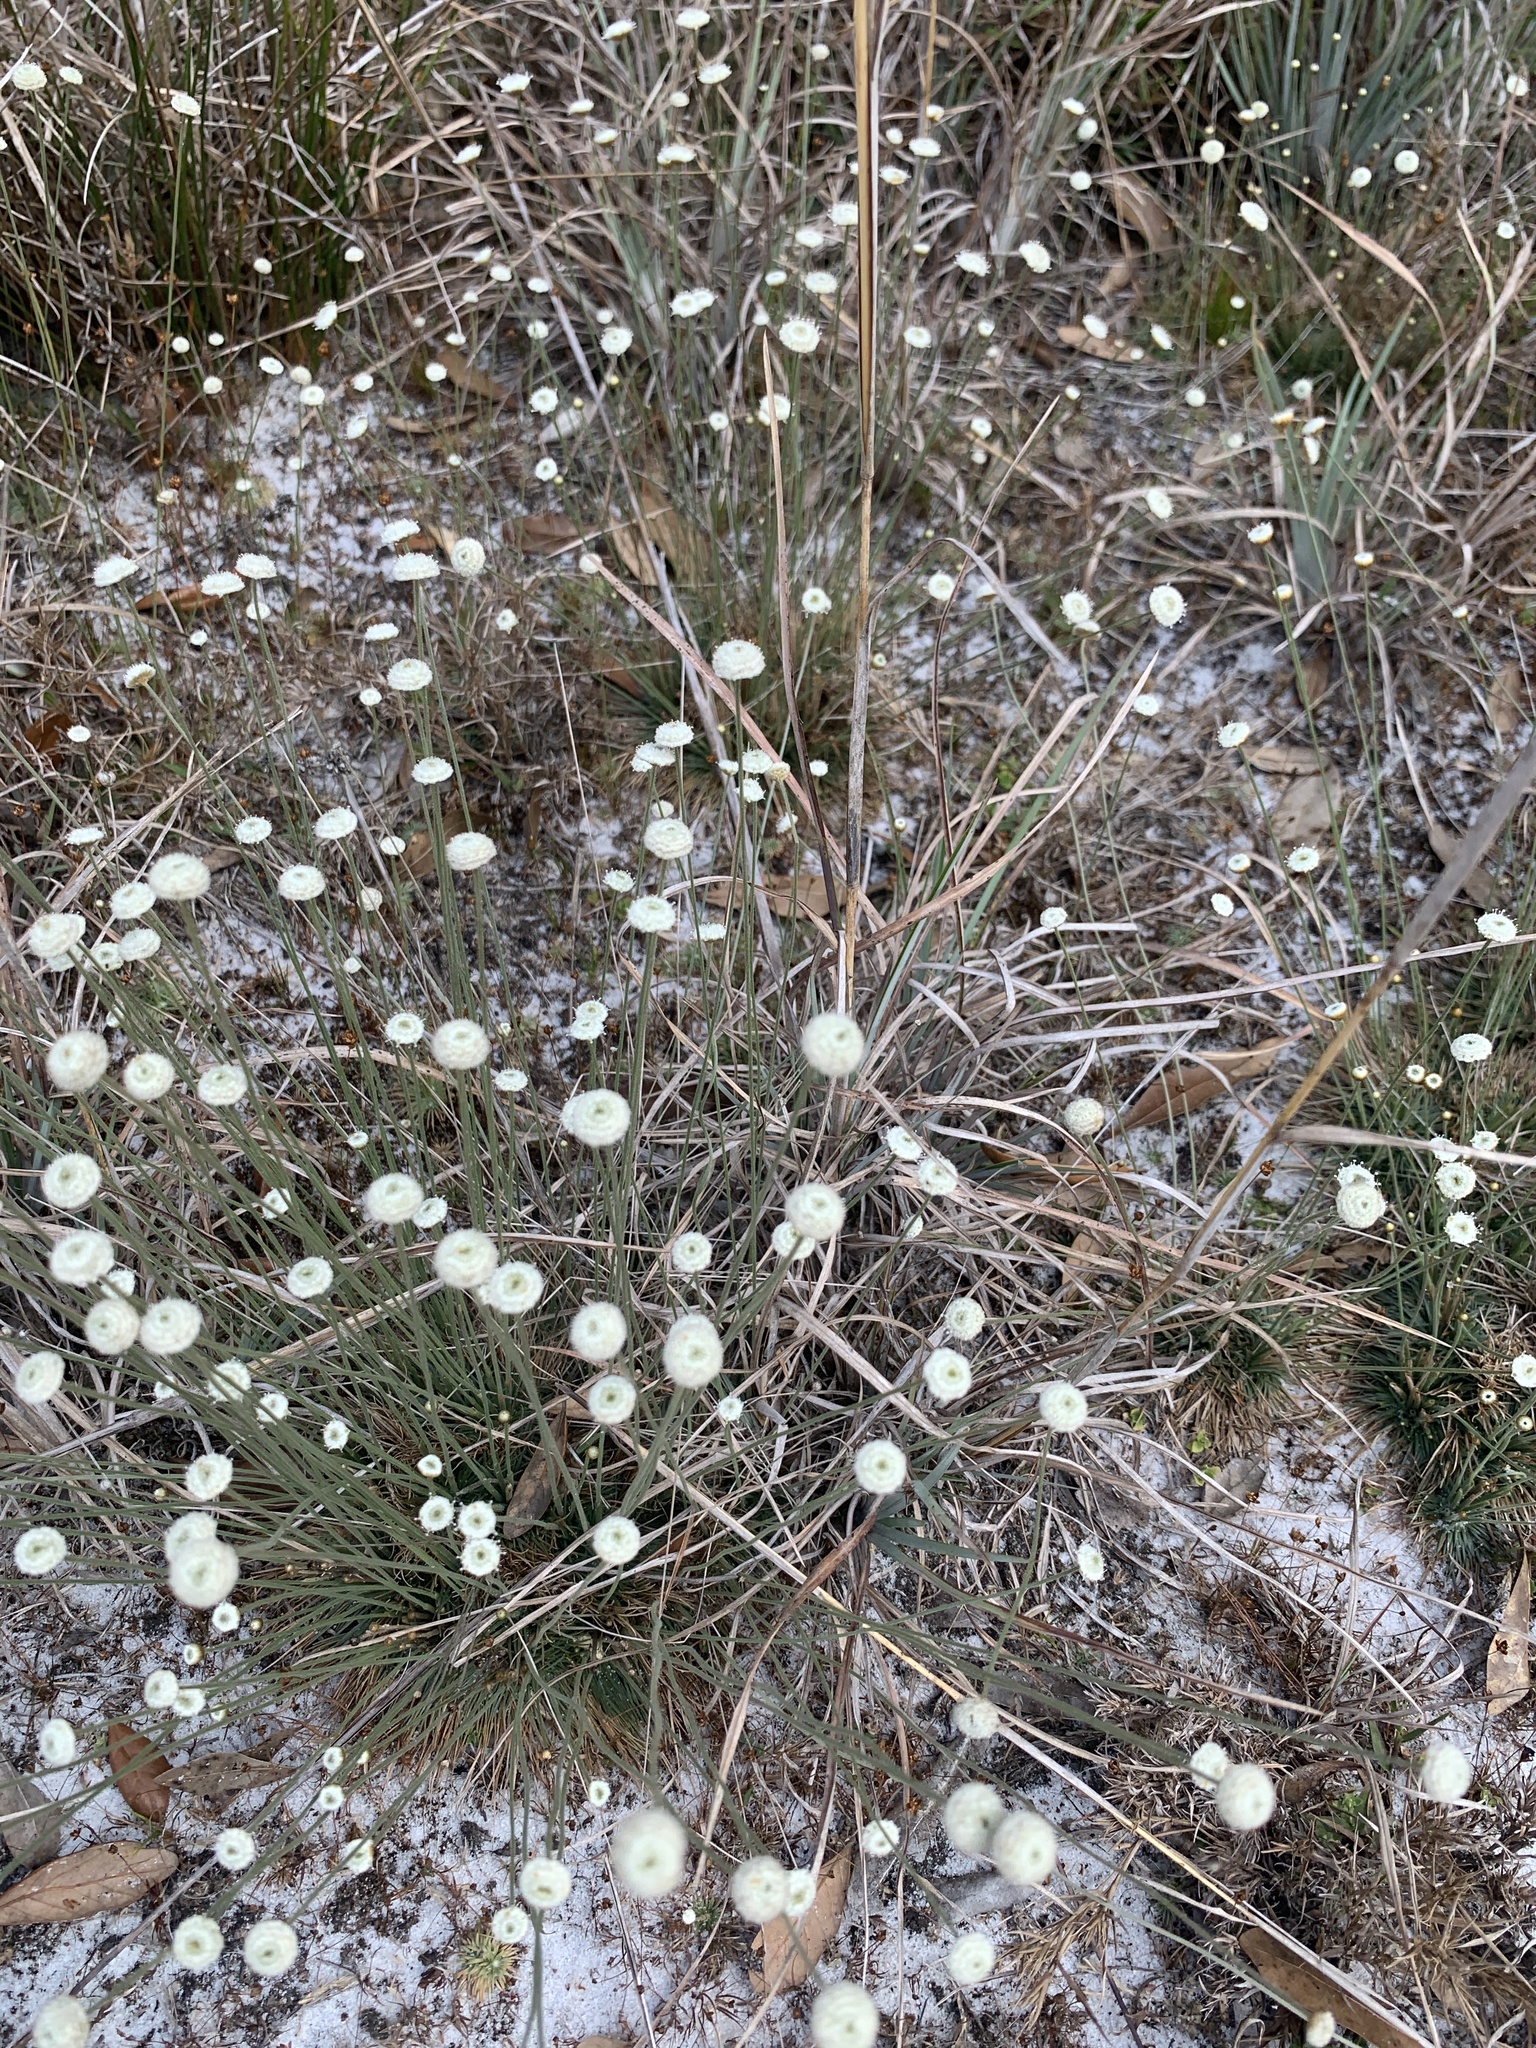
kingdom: Plantae
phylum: Tracheophyta
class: Liliopsida
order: Poales
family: Eriocaulaceae
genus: Syngonanthus
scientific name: Syngonanthus flavidulus
